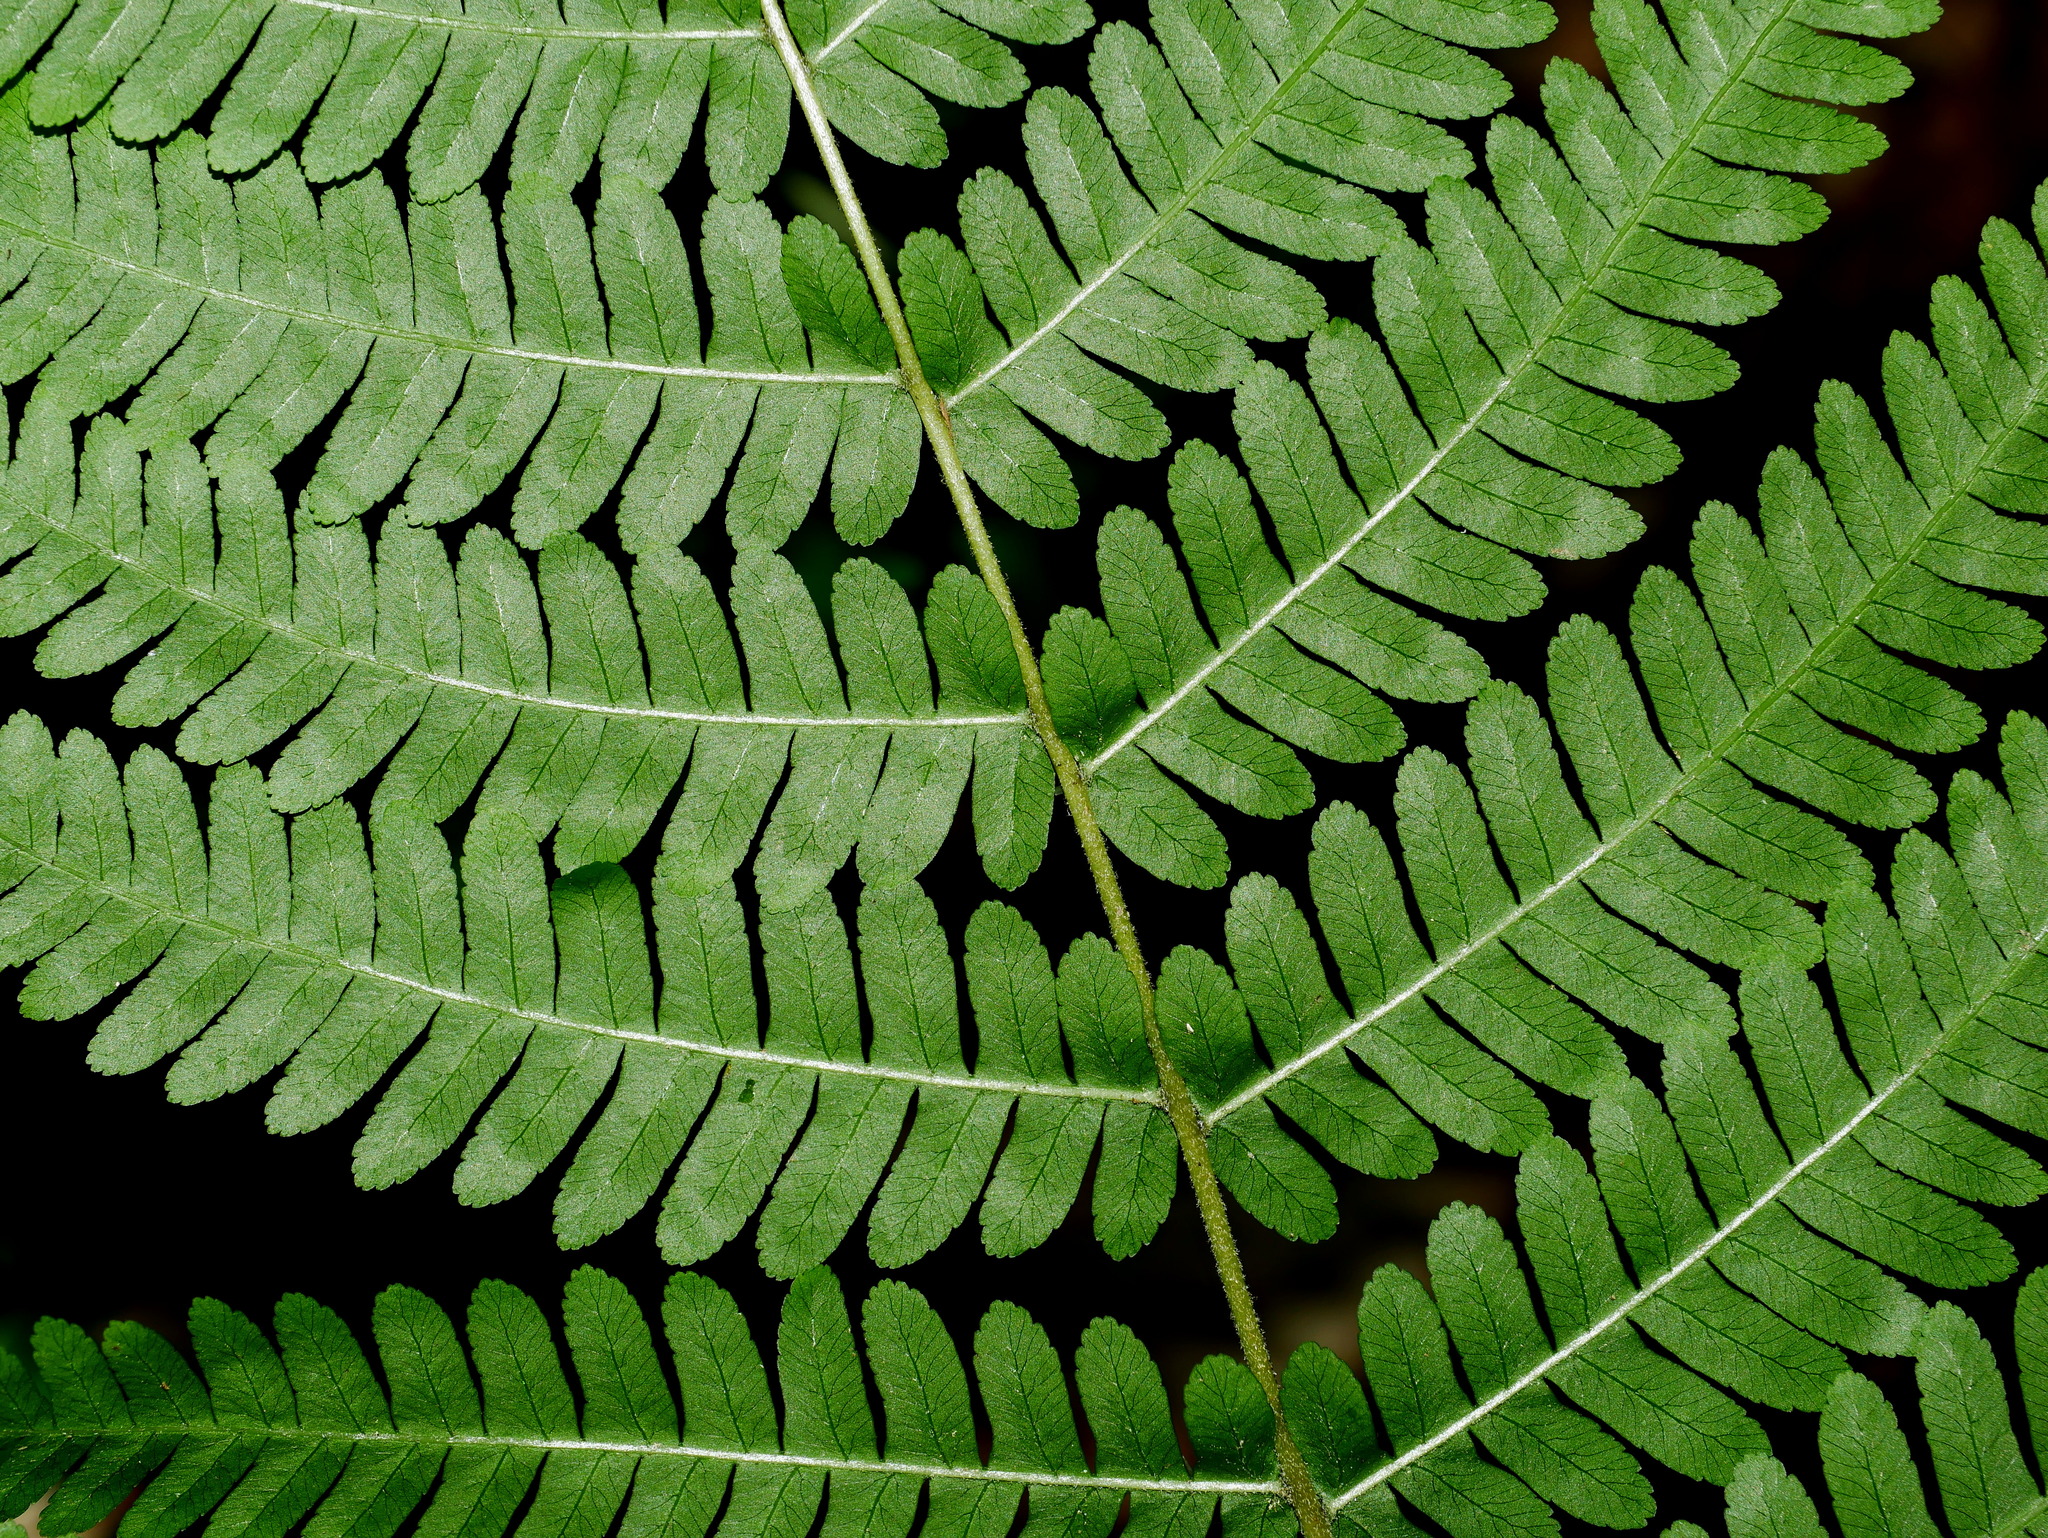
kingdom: Plantae
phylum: Tracheophyta
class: Polypodiopsida
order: Polypodiales
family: Pteridaceae
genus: Pteris
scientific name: Pteris longipes
